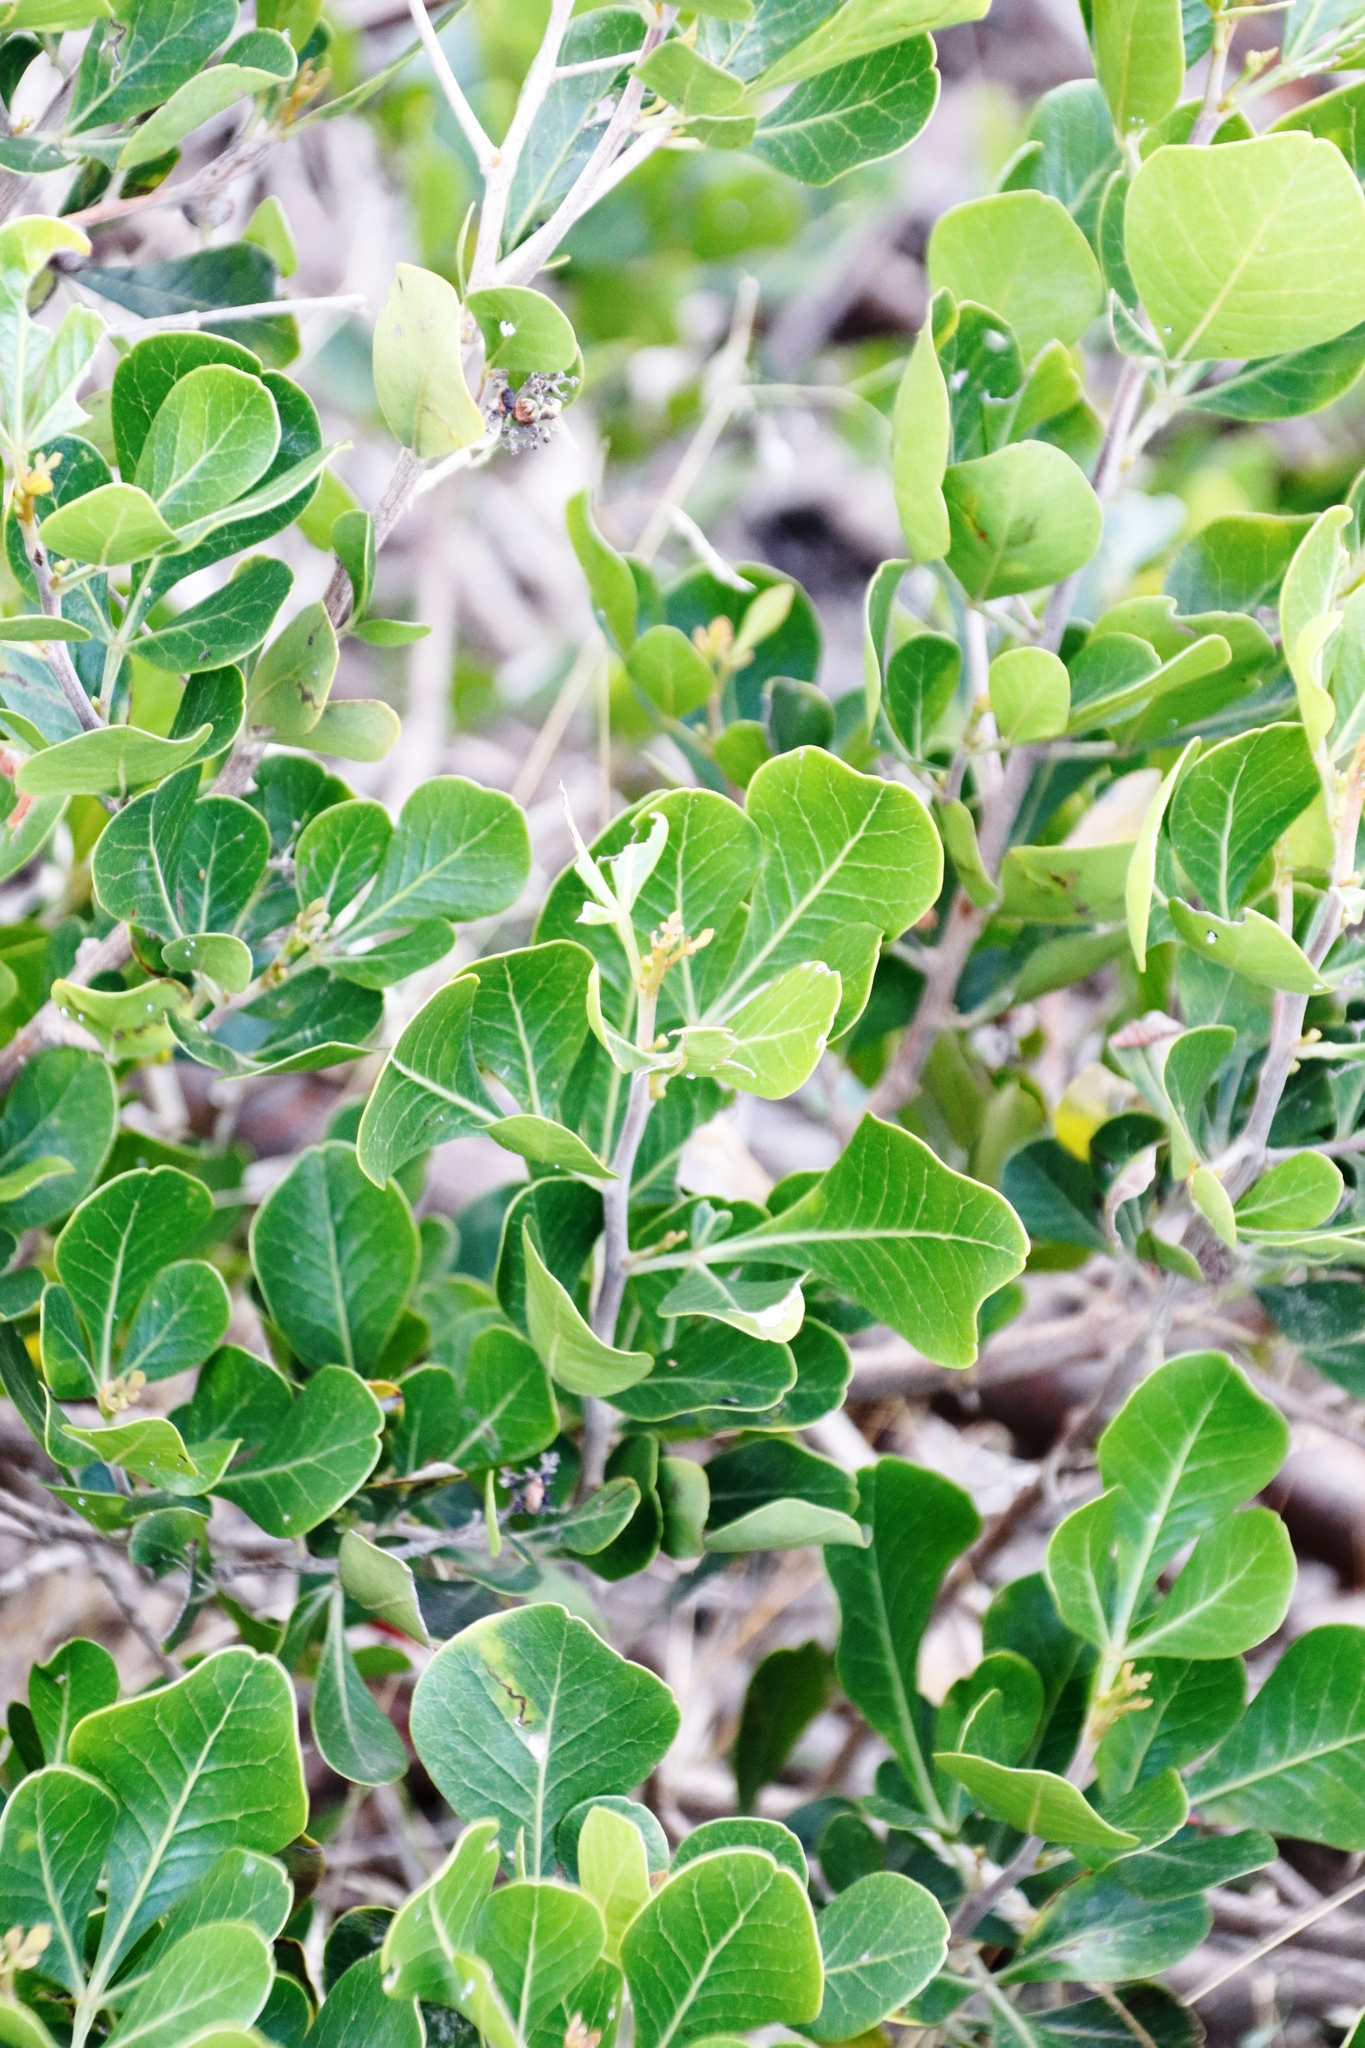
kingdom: Plantae
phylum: Tracheophyta
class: Magnoliopsida
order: Sapindales
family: Anacardiaceae
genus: Searsia
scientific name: Searsia lucida
